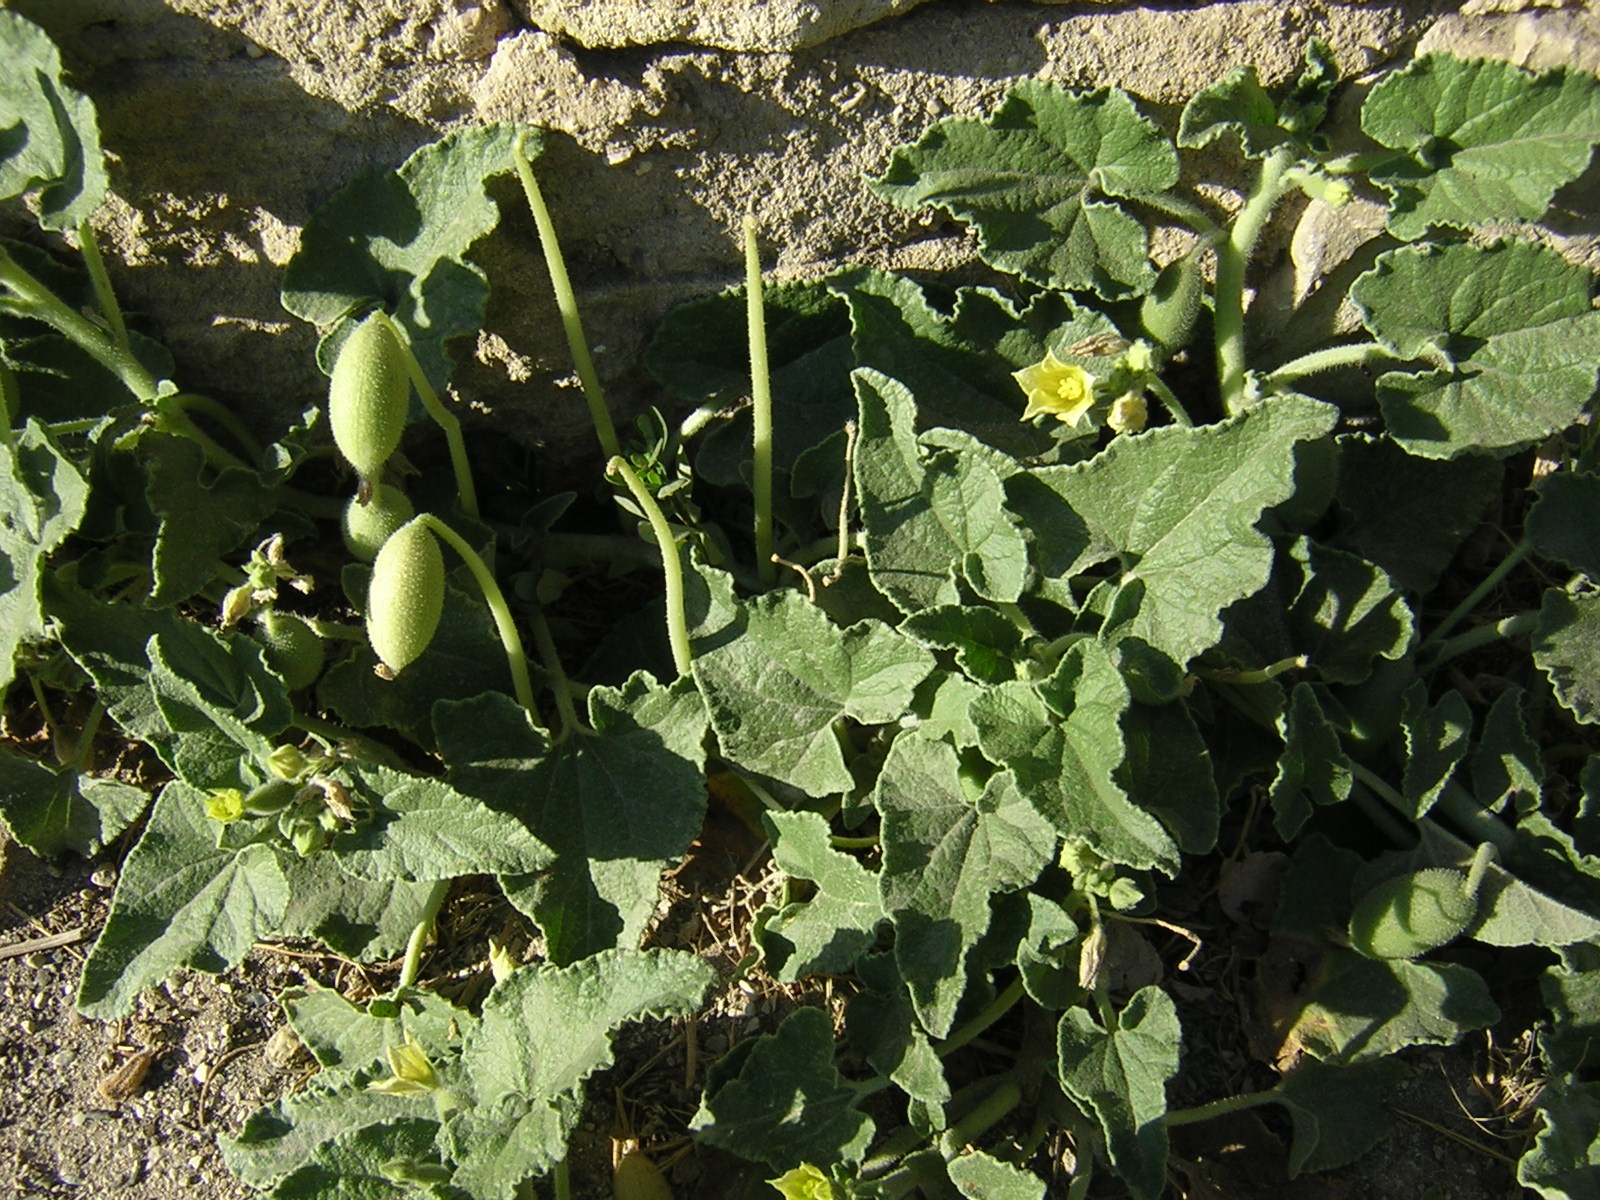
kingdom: Plantae
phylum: Tracheophyta
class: Magnoliopsida
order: Cucurbitales
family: Cucurbitaceae
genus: Ecballium
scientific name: Ecballium elaterium
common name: Squirting cucumber
